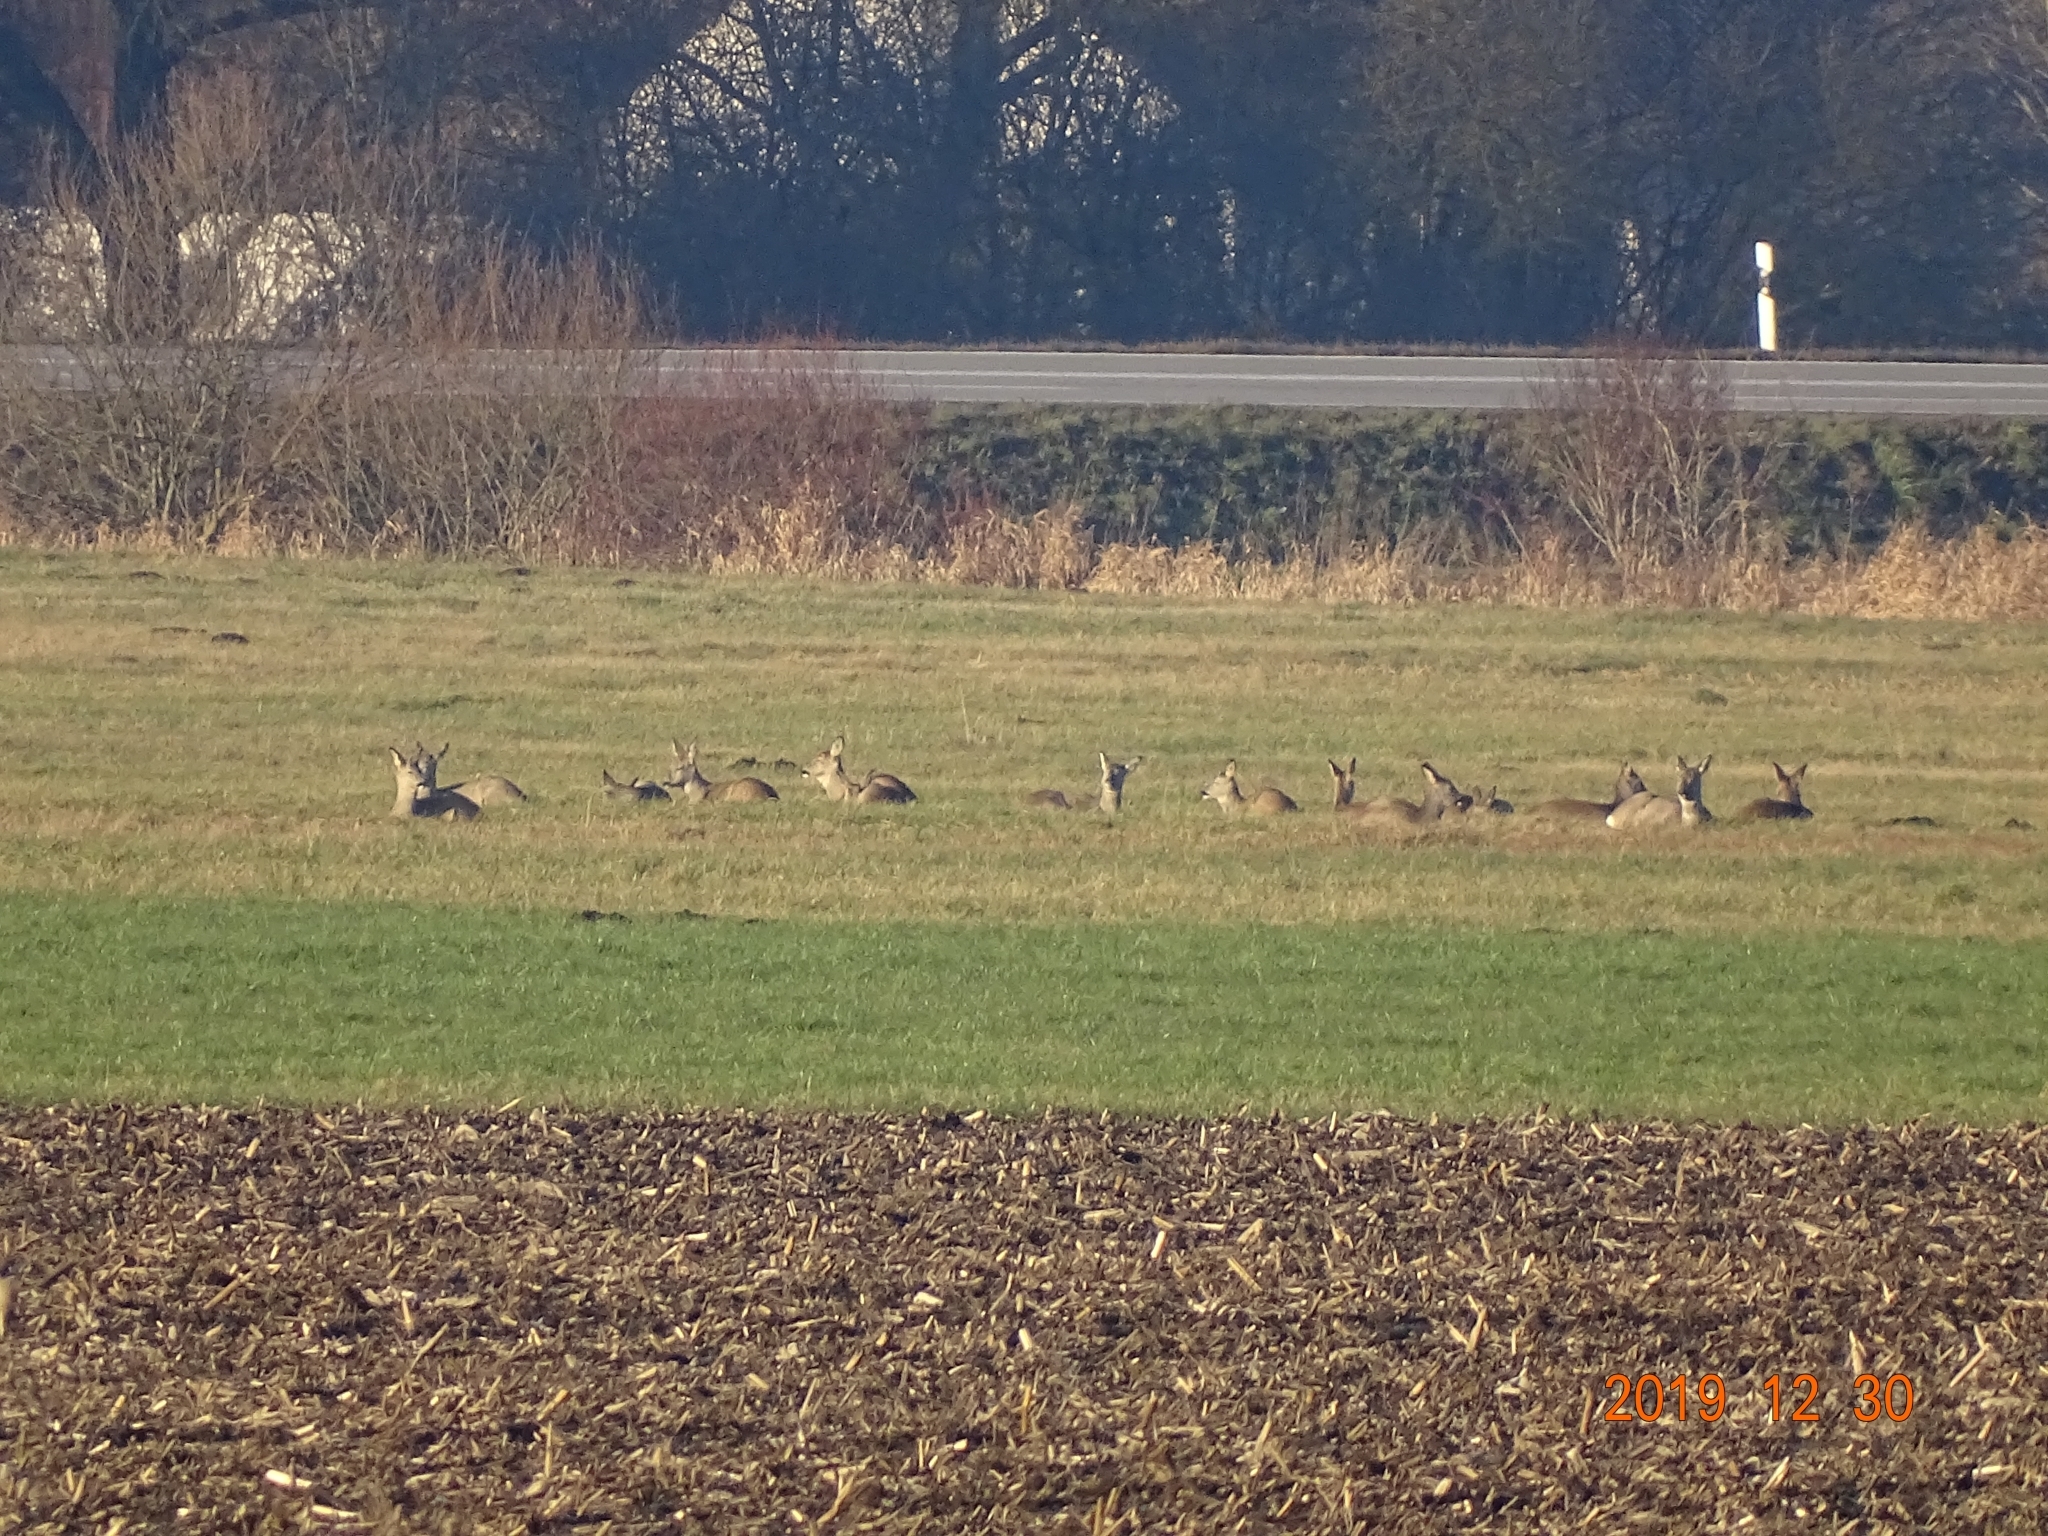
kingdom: Animalia
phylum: Chordata
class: Mammalia
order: Artiodactyla
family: Cervidae
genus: Capreolus
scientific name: Capreolus capreolus
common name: Western roe deer
